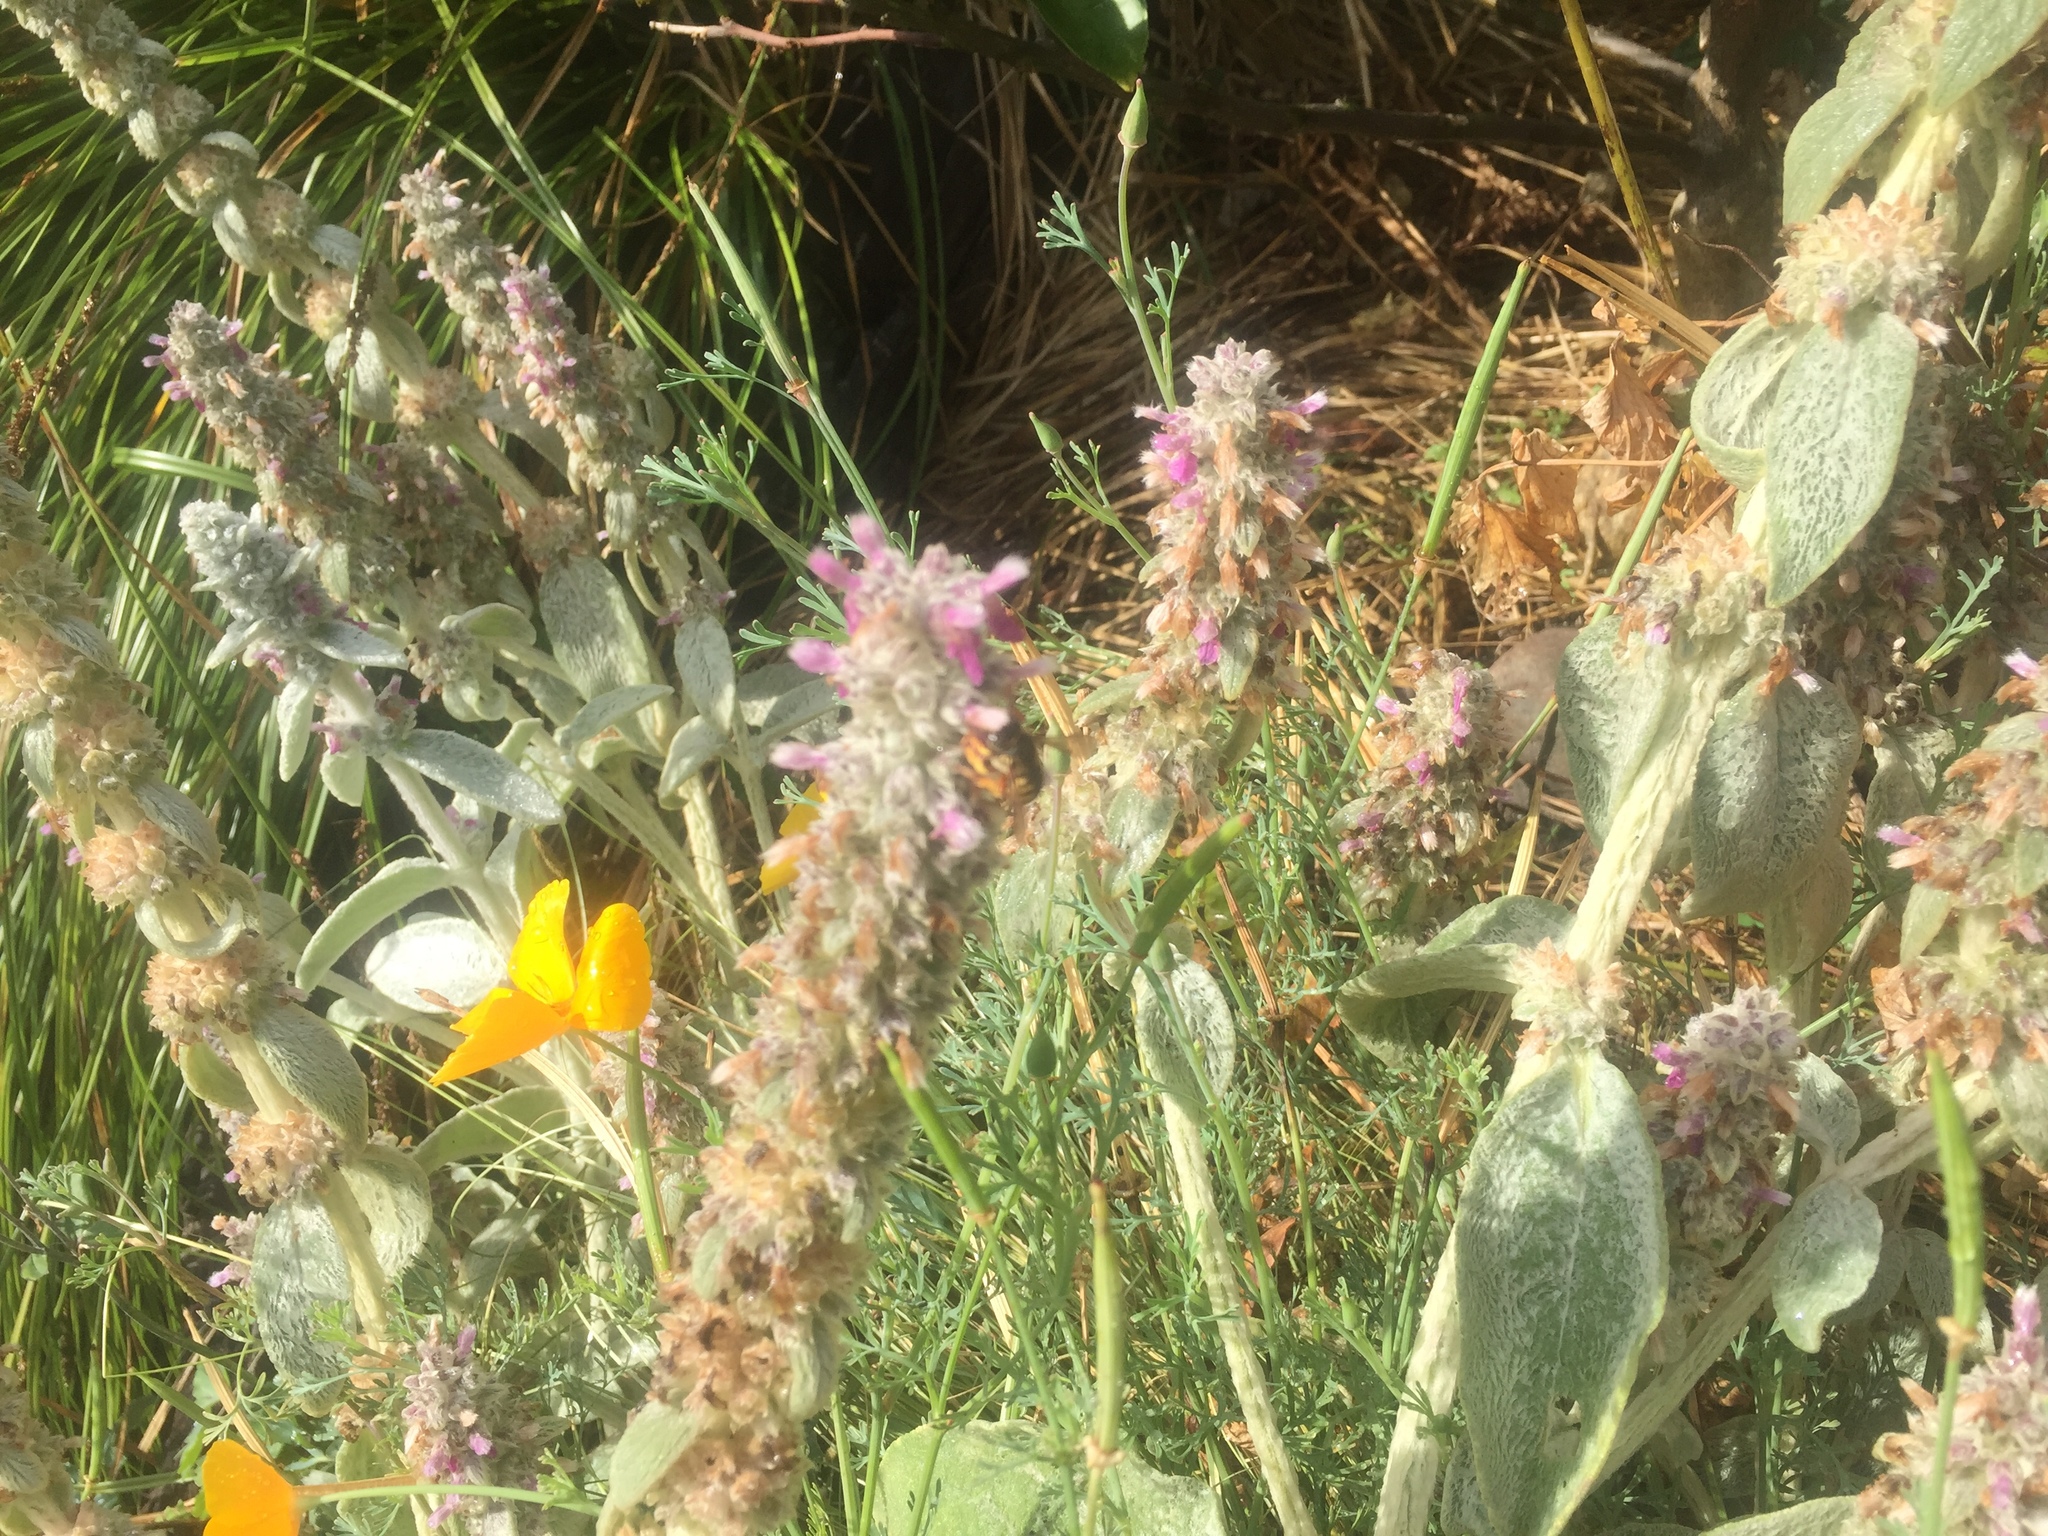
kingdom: Animalia
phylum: Arthropoda
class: Insecta
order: Hymenoptera
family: Megachilidae
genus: Anthidium
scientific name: Anthidium manicatum
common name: Wool carder bee
